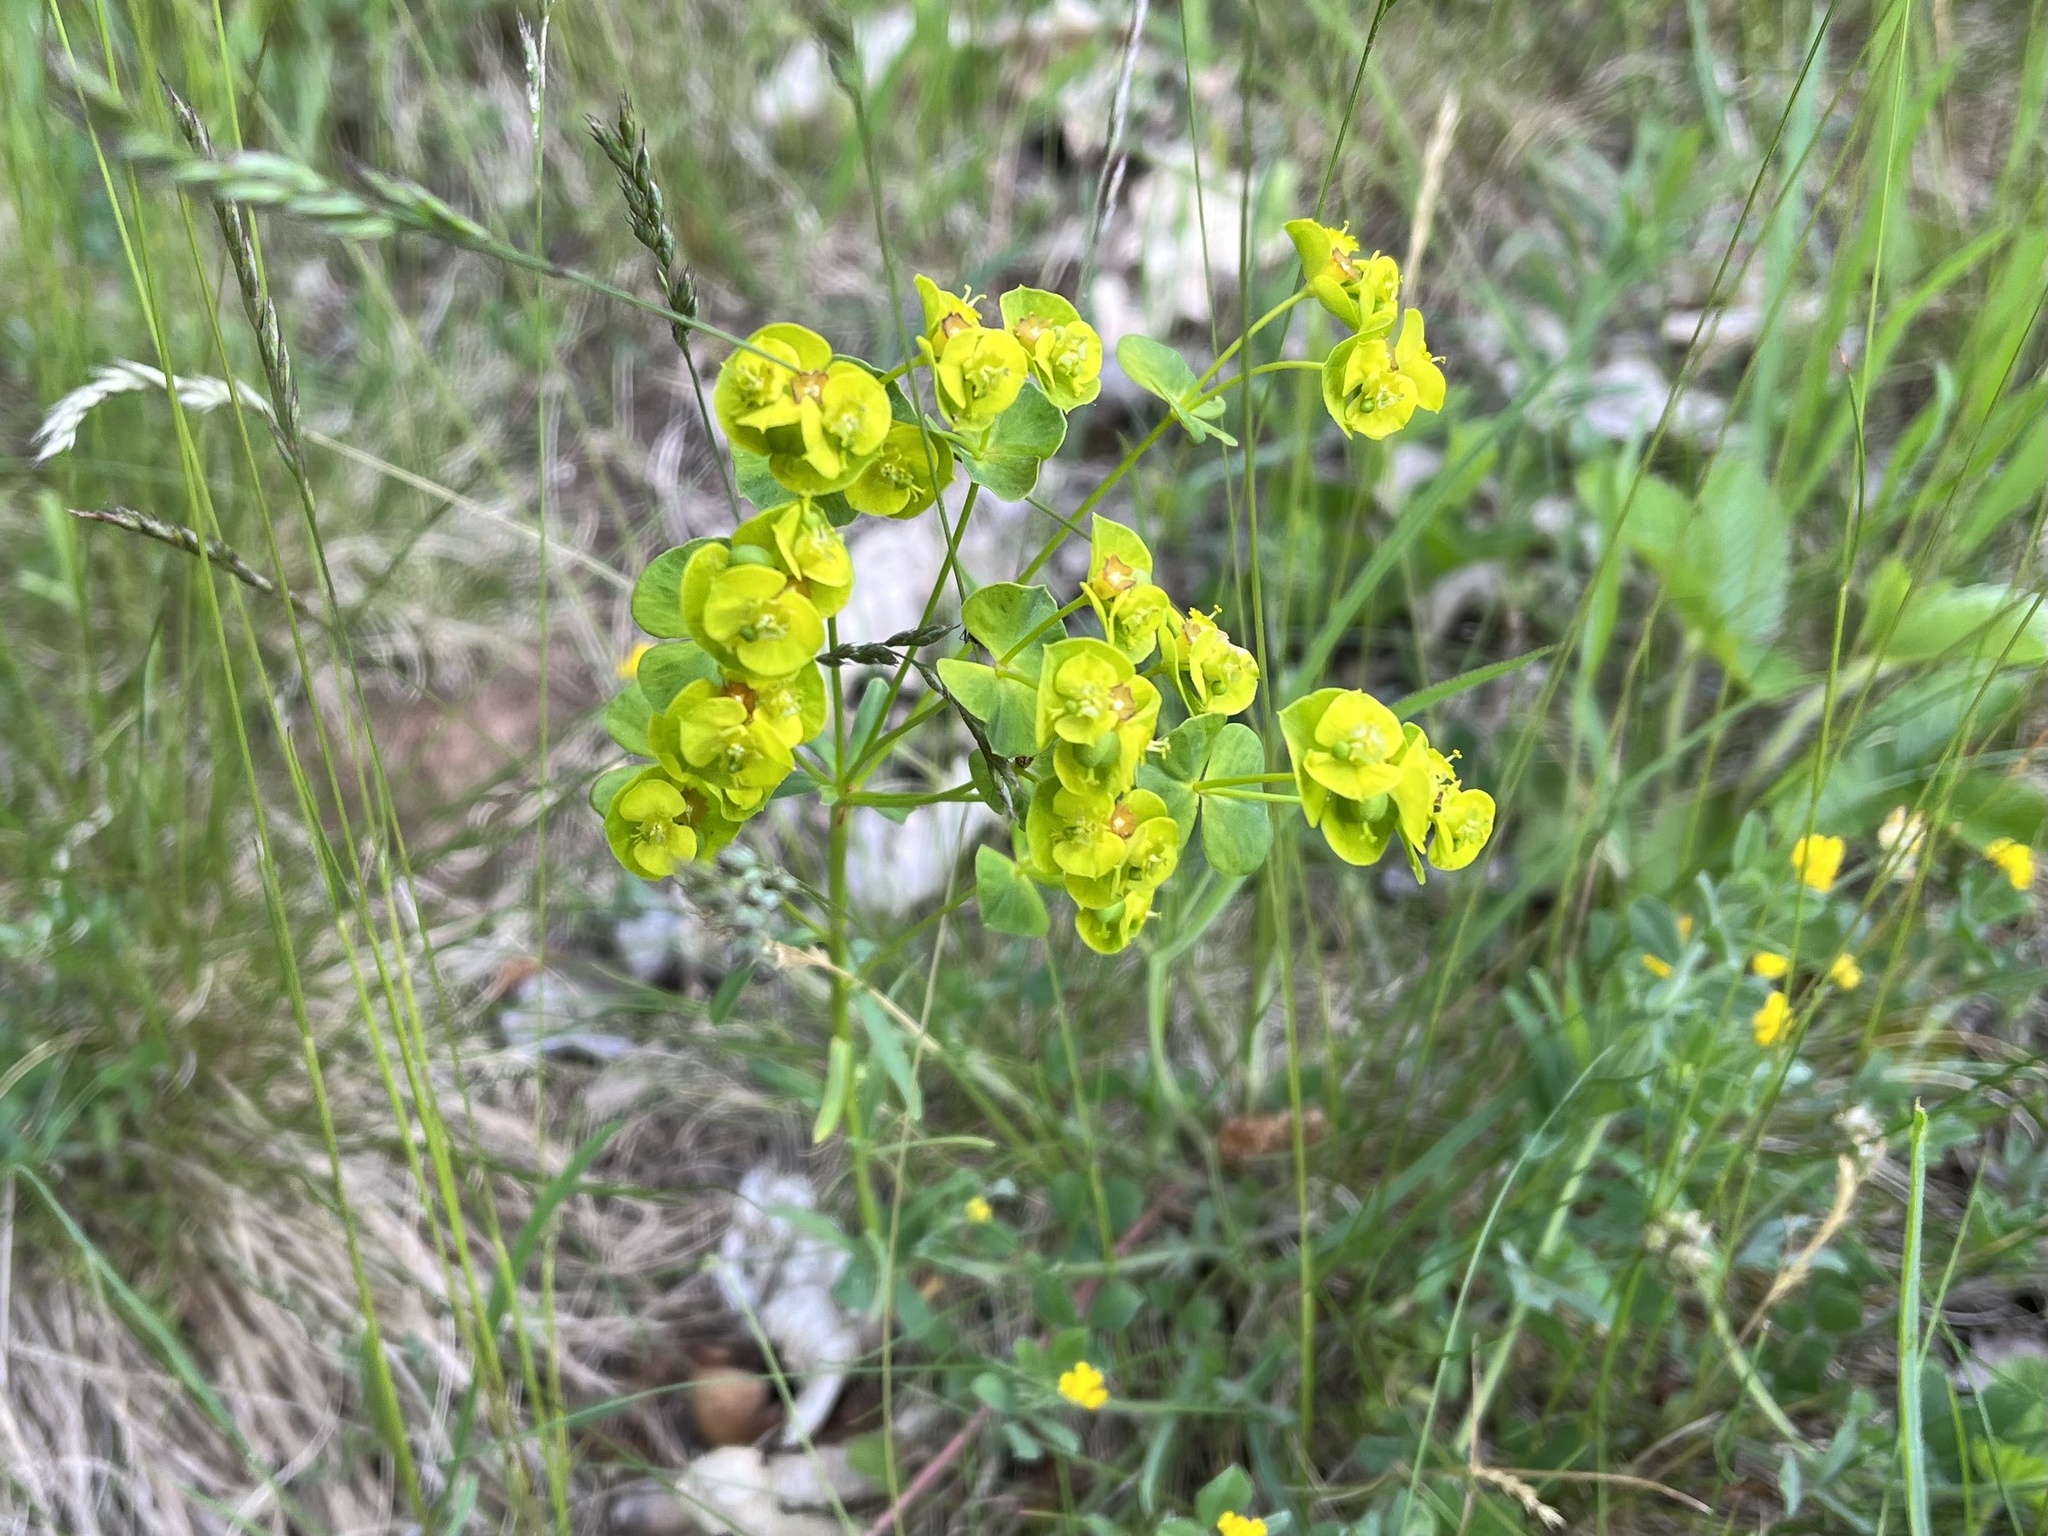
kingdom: Plantae
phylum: Tracheophyta
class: Magnoliopsida
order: Malpighiales
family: Euphorbiaceae
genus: Euphorbia
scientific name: Euphorbia esula
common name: Leafy spurge
